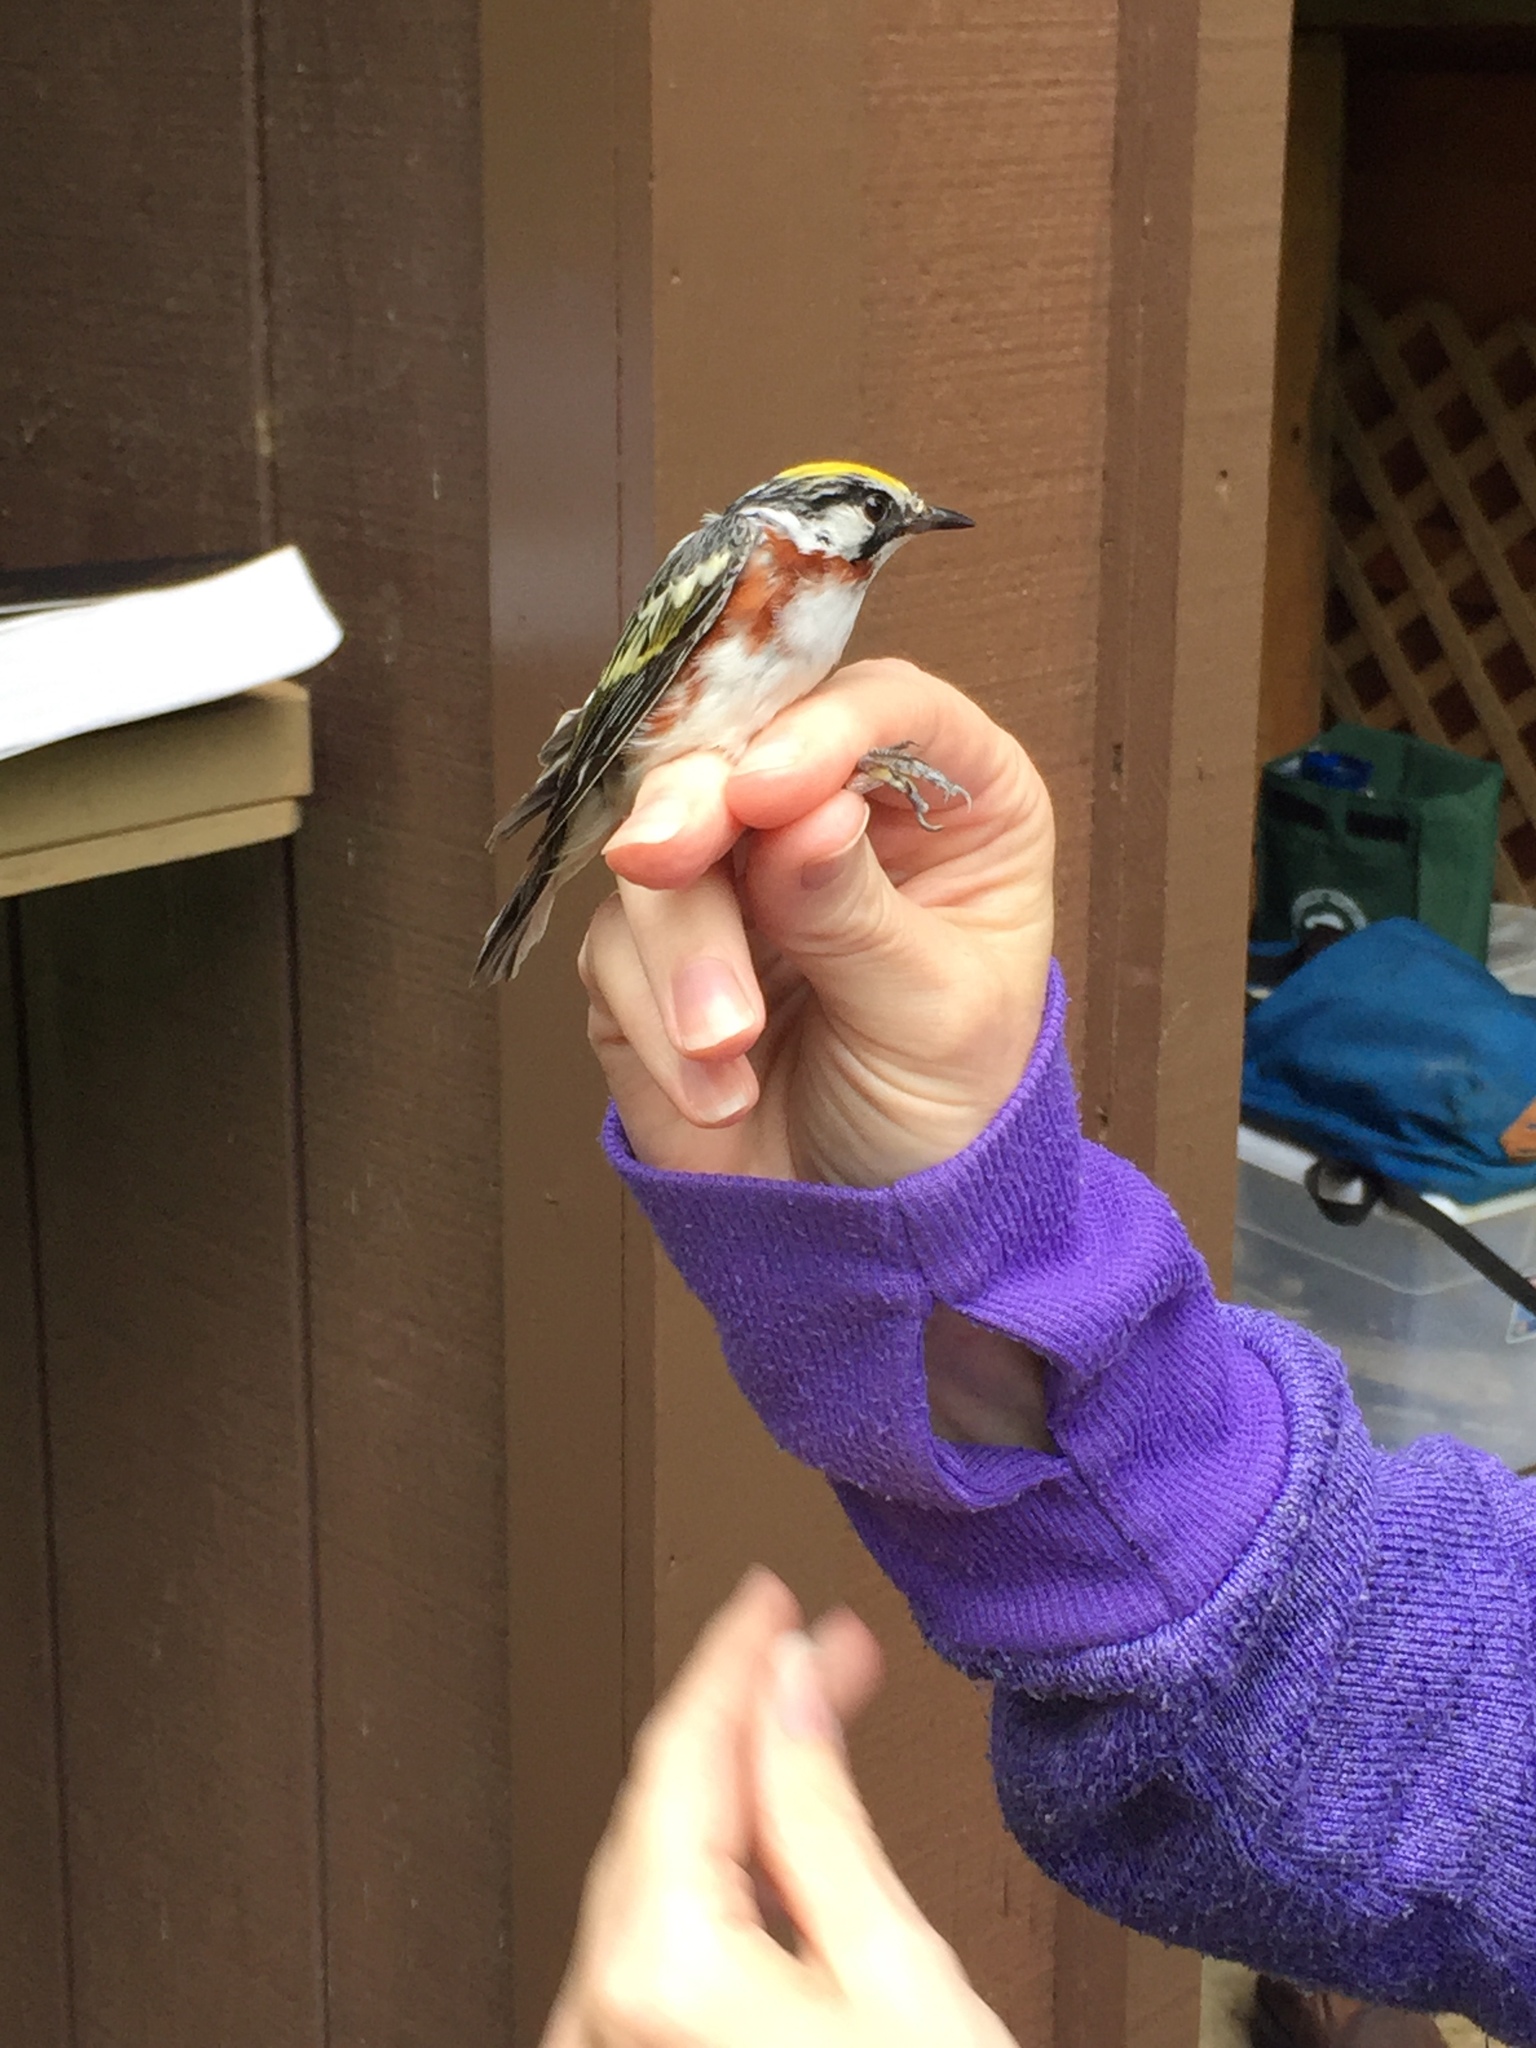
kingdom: Animalia
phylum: Chordata
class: Aves
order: Passeriformes
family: Parulidae
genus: Setophaga
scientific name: Setophaga pensylvanica
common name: Chestnut-sided warbler
